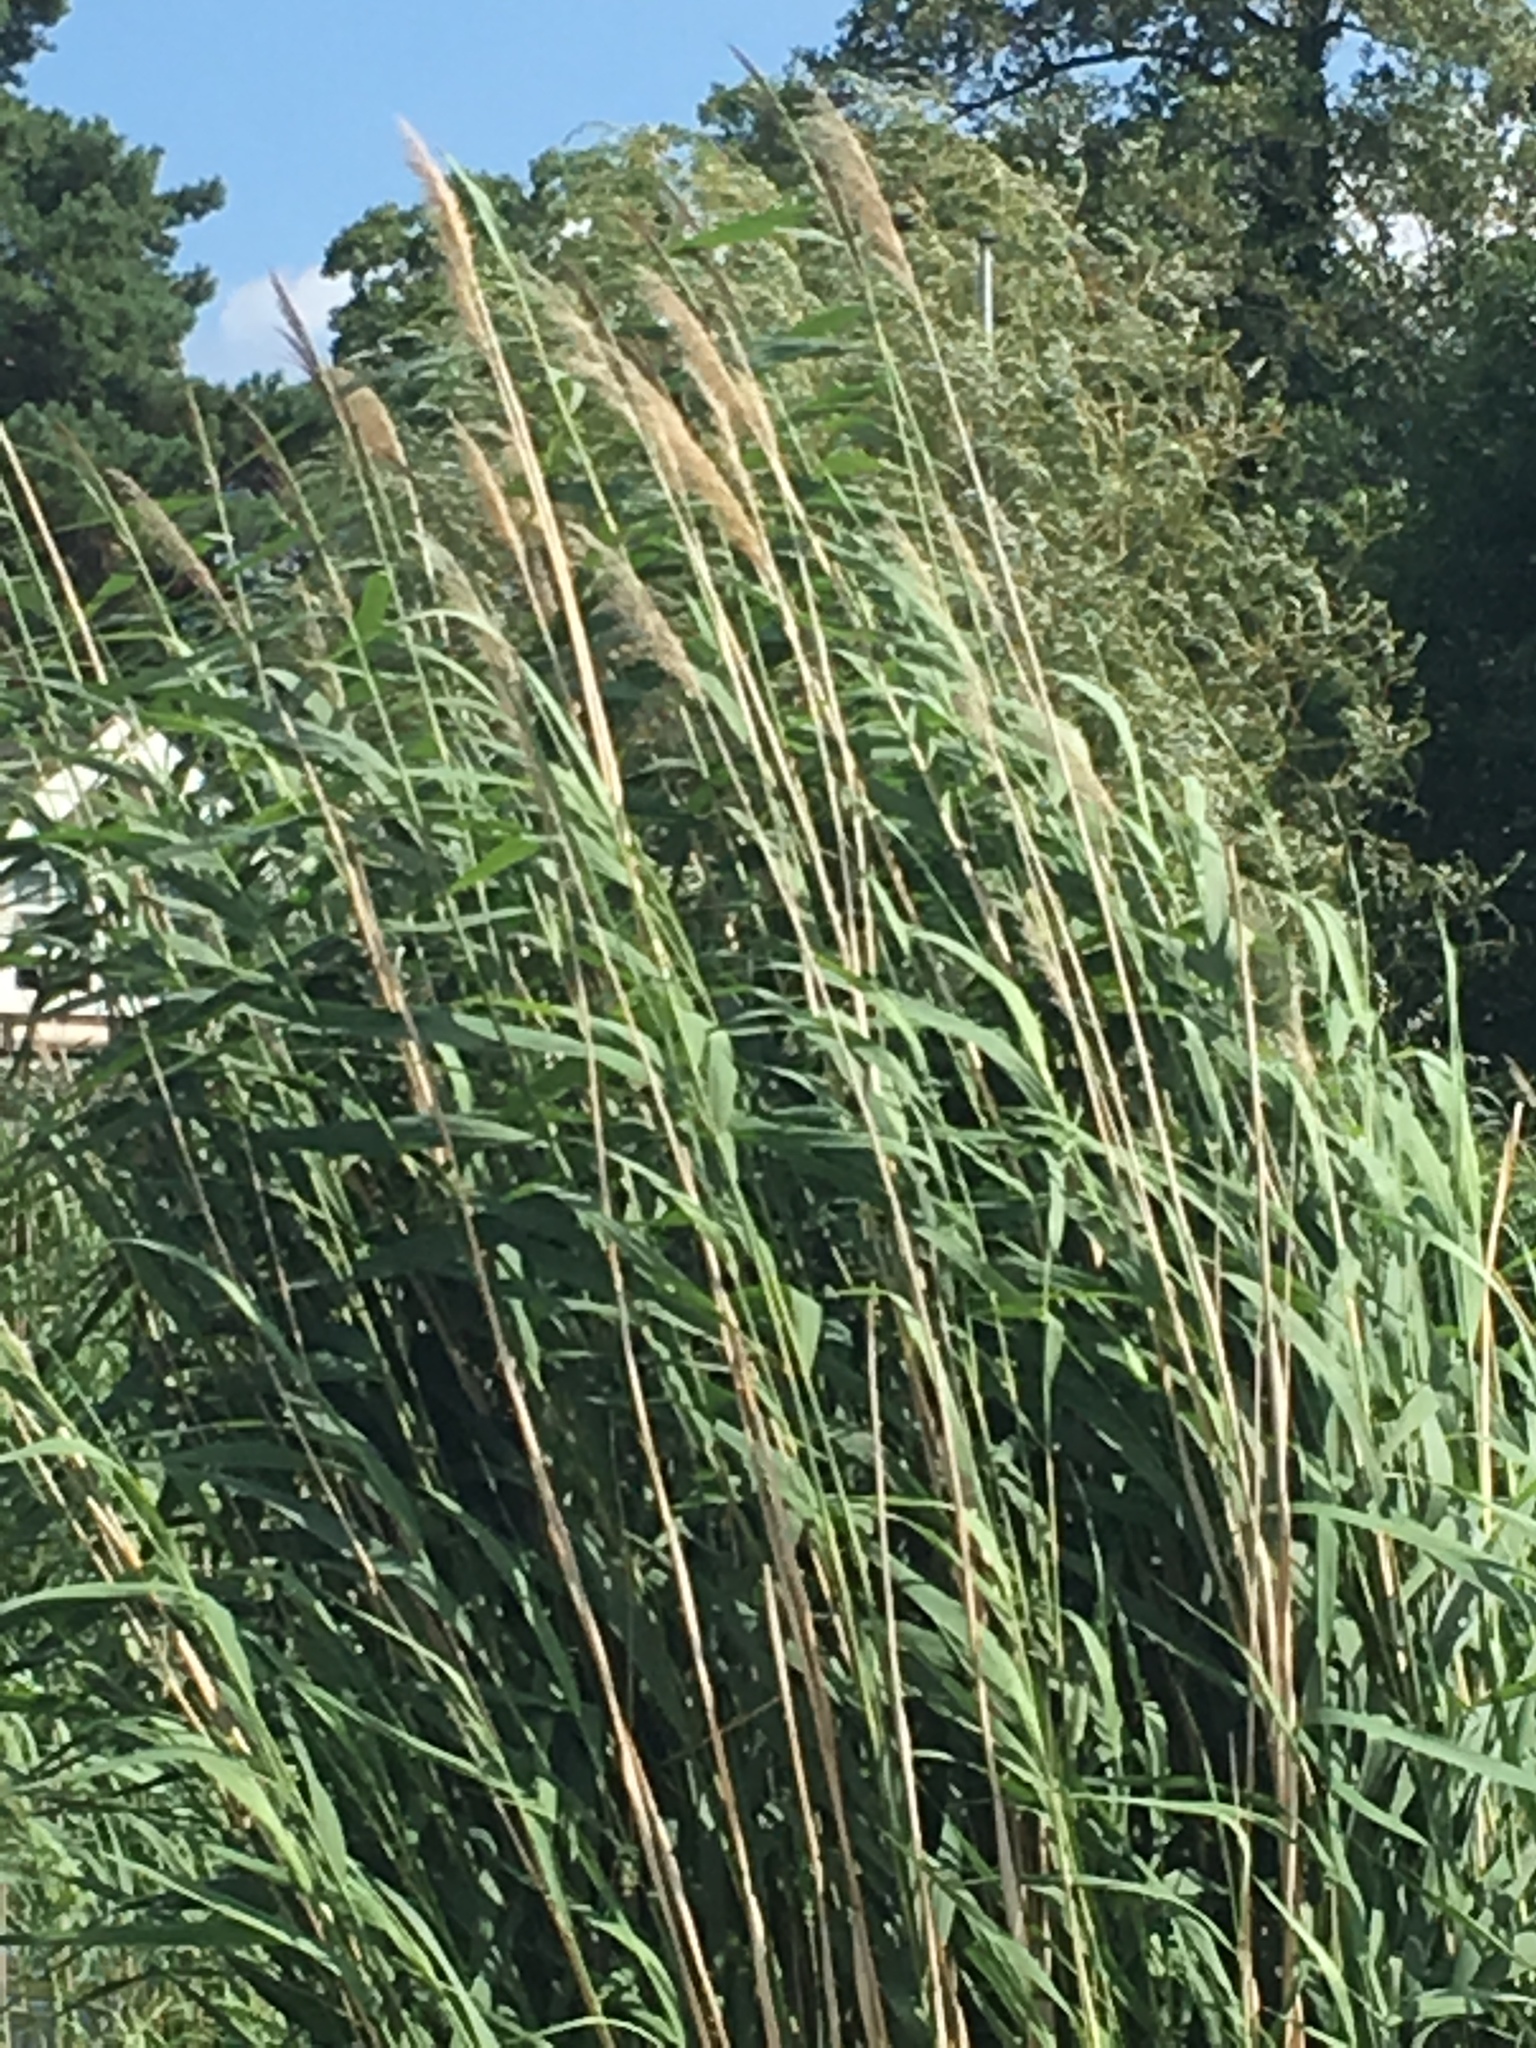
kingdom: Plantae
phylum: Tracheophyta
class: Liliopsida
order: Poales
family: Poaceae
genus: Phragmites
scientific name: Phragmites australis
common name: Common reed
